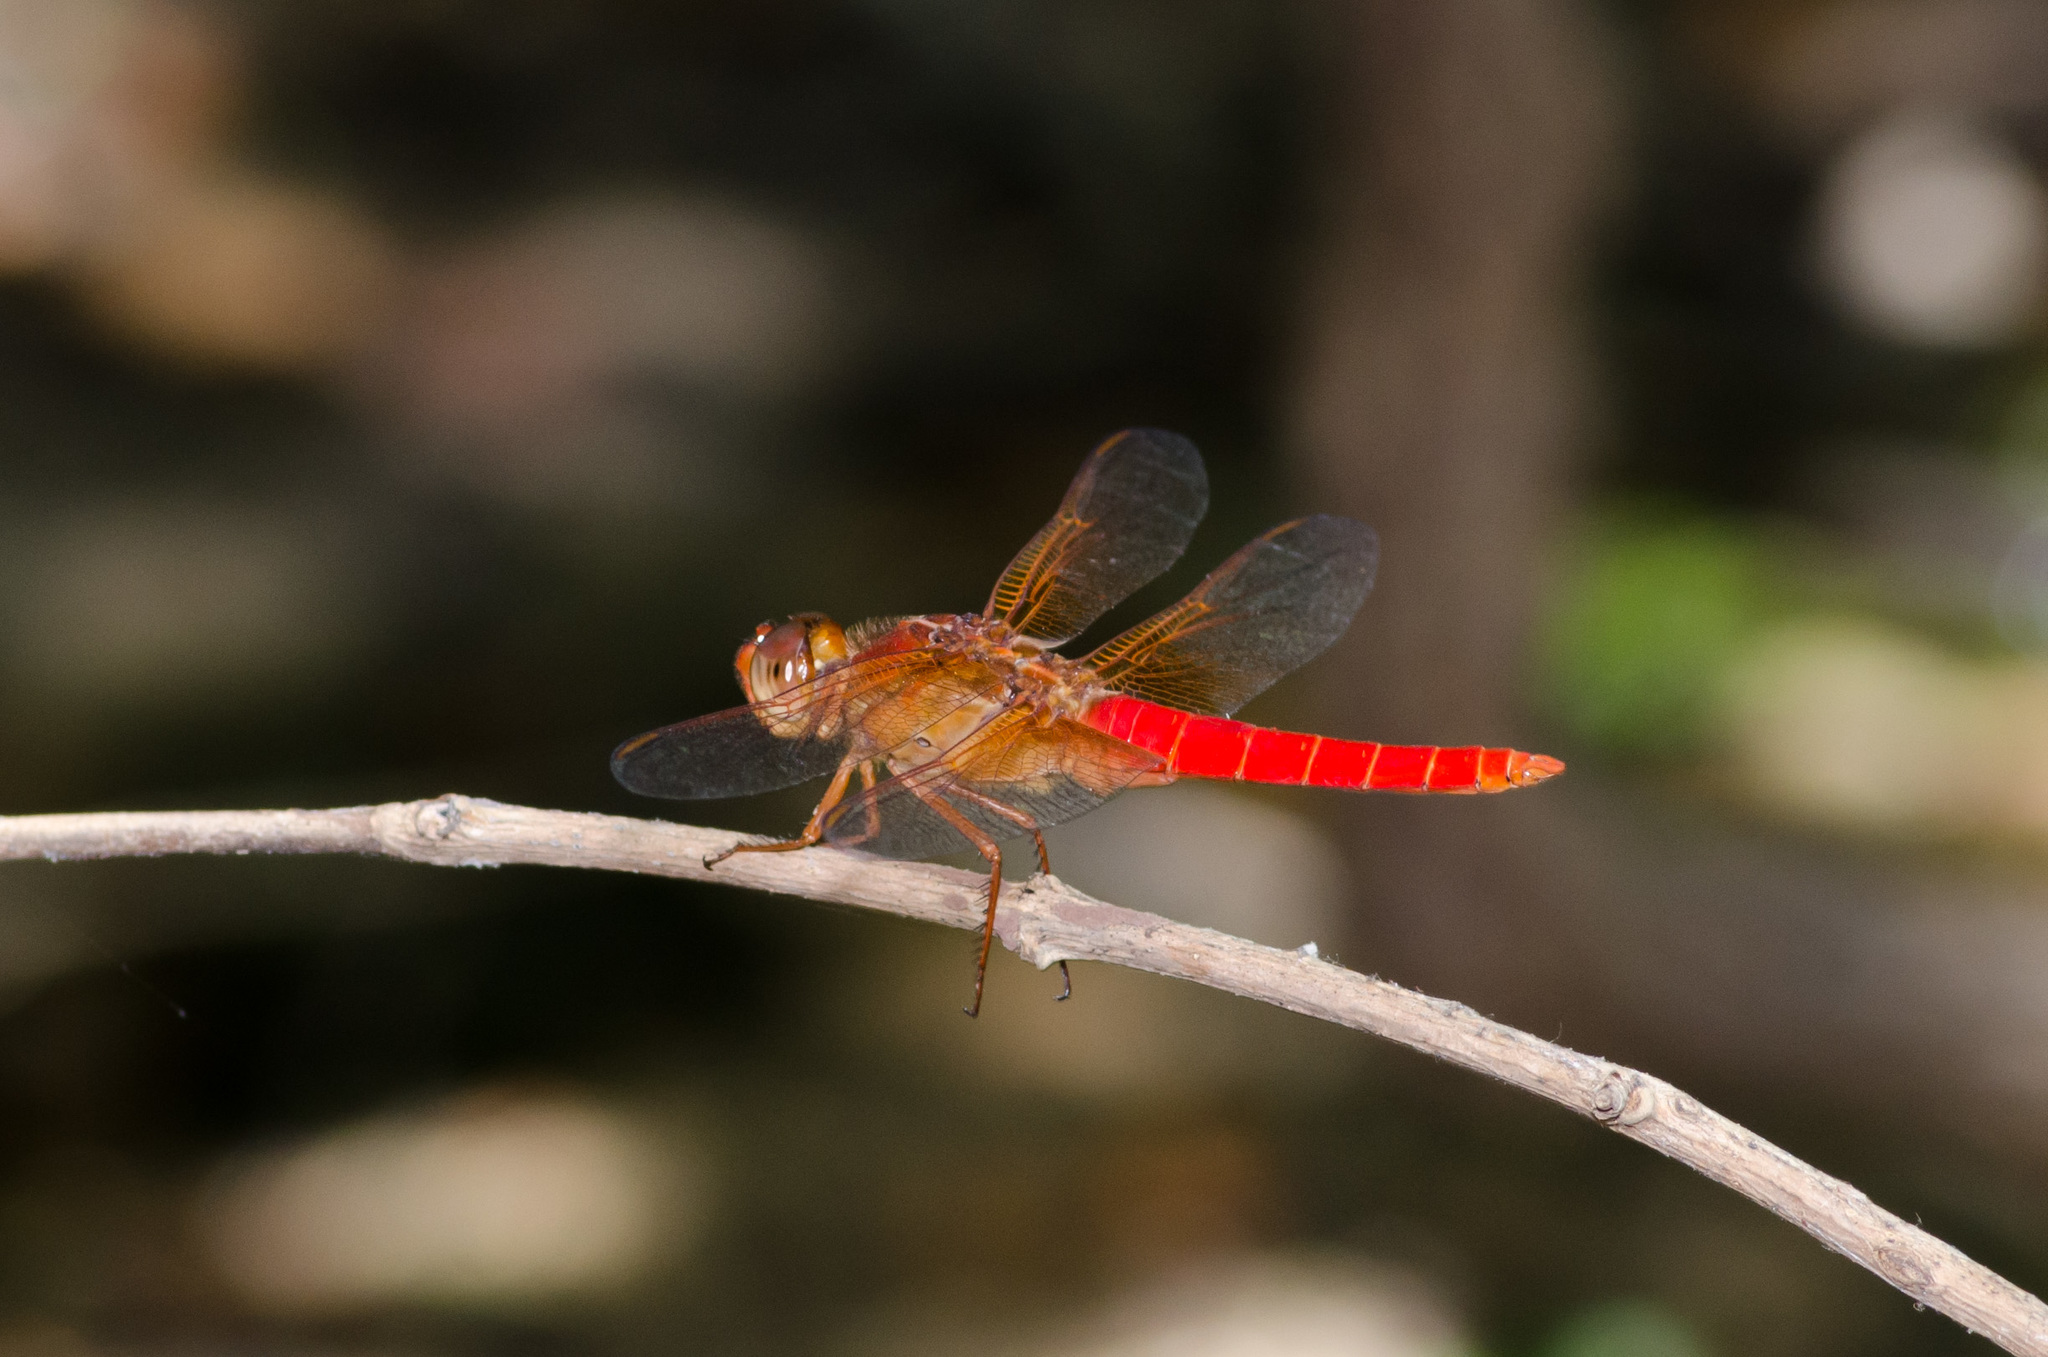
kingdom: Animalia
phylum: Arthropoda
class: Insecta
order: Odonata
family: Libellulidae
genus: Libellula
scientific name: Libellula croceipennis
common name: Neon skimmer
